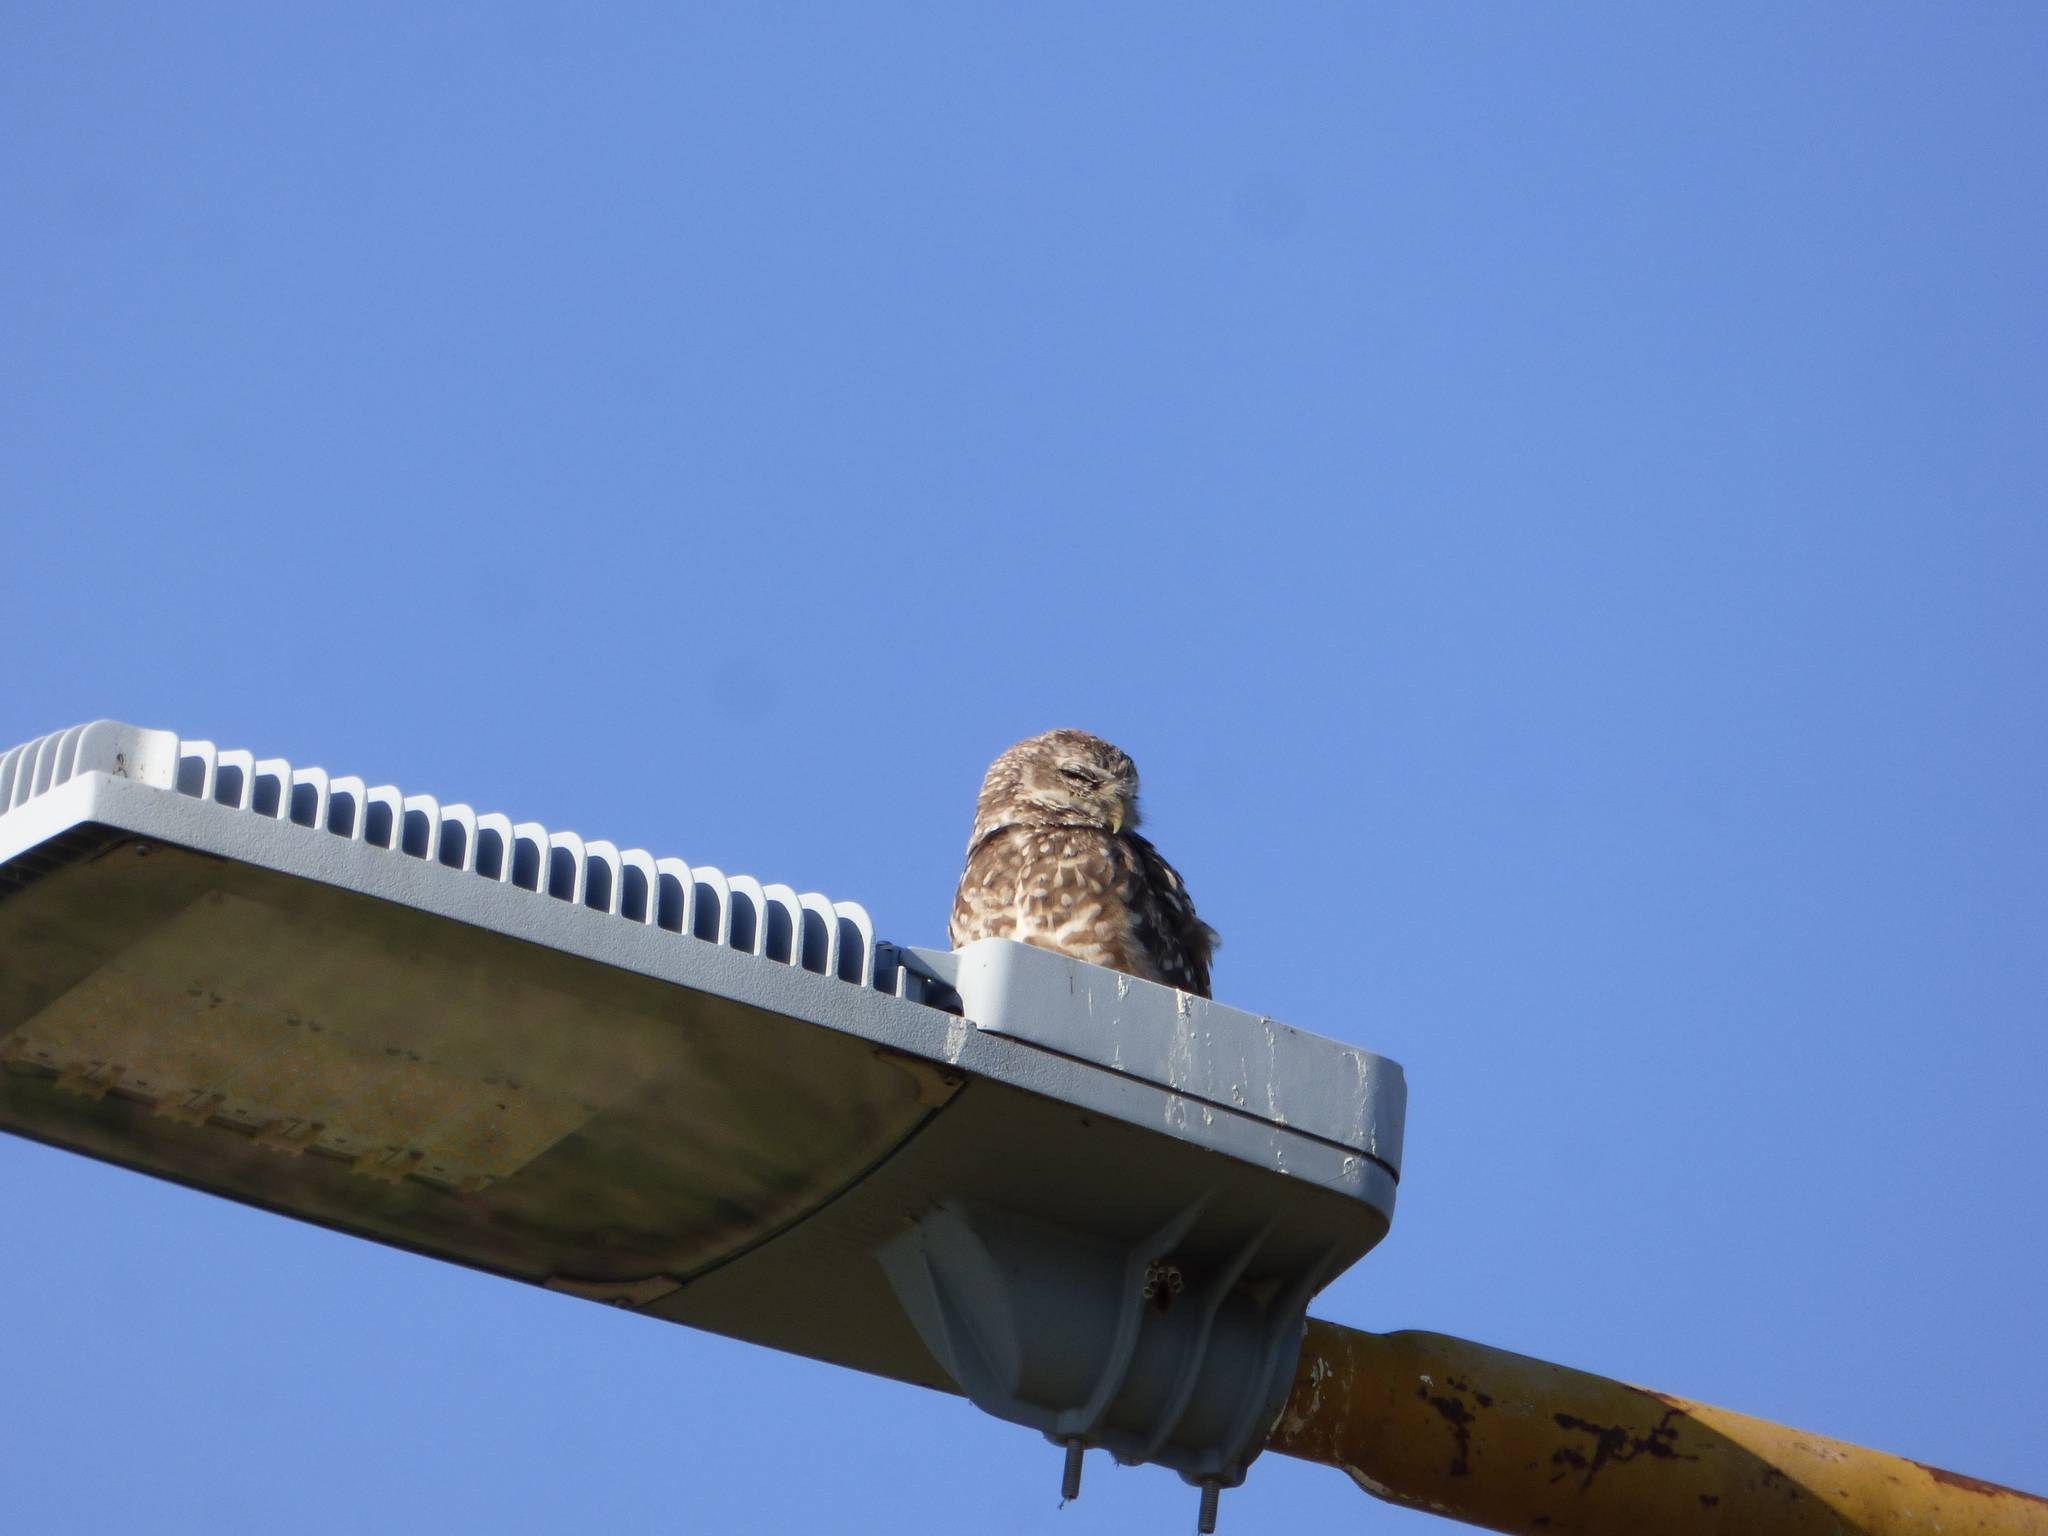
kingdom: Animalia
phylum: Chordata
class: Aves
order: Strigiformes
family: Strigidae
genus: Athene
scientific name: Athene cunicularia
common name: Burrowing owl
